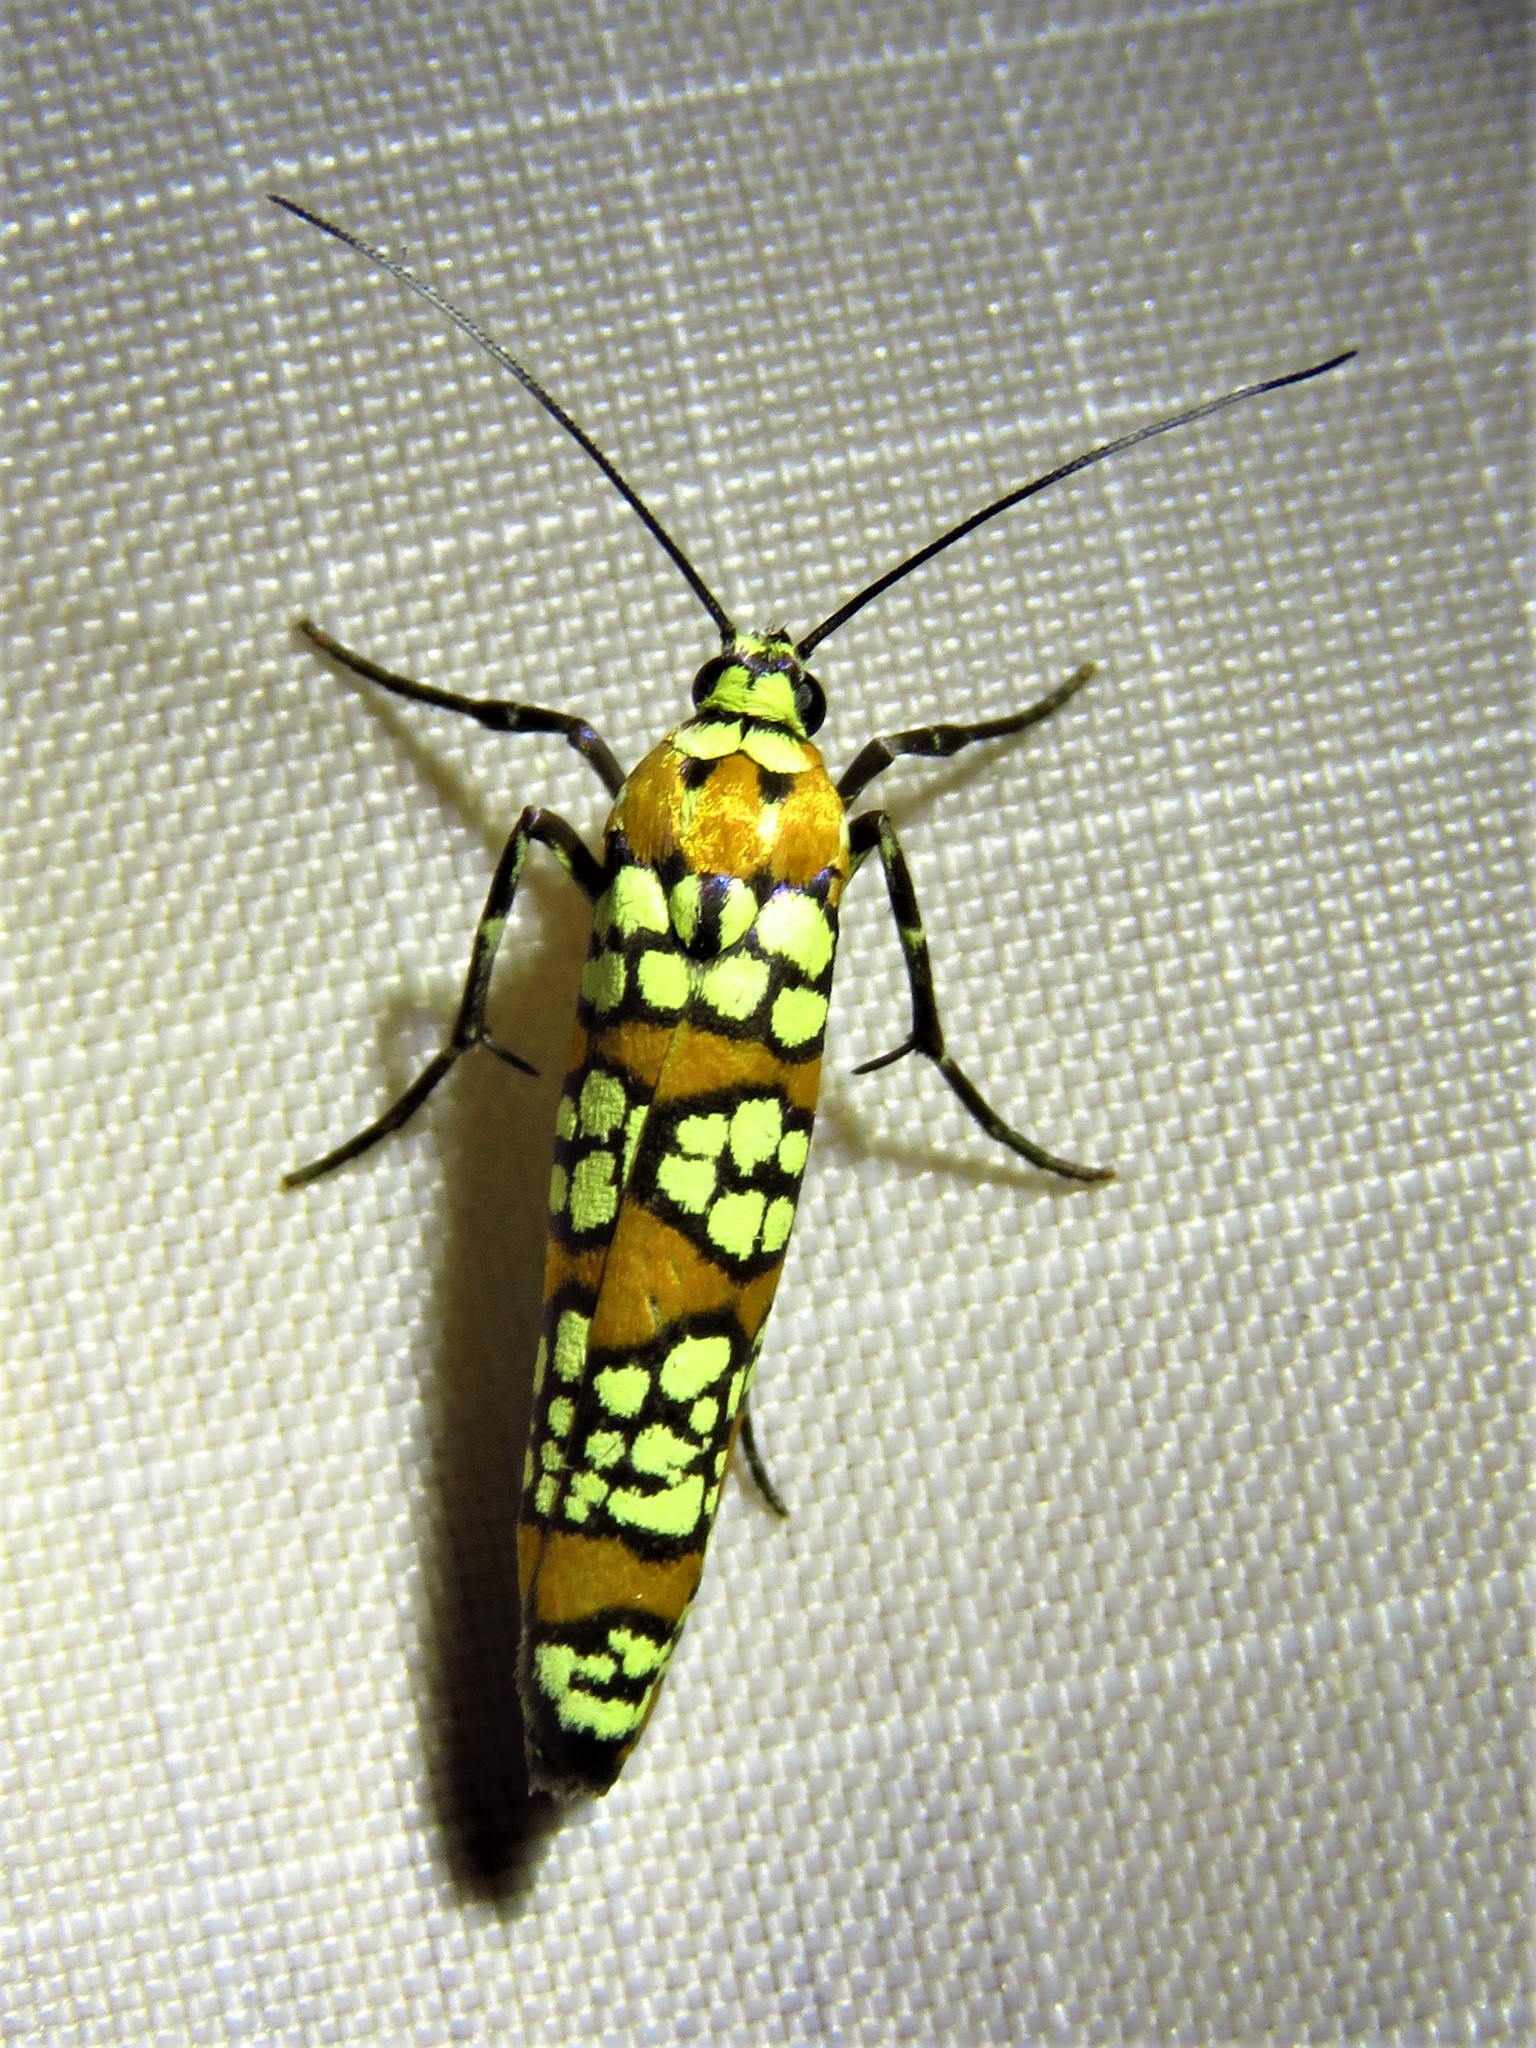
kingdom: Animalia
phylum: Arthropoda
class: Insecta
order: Lepidoptera
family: Attevidae
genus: Atteva
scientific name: Atteva punctella
